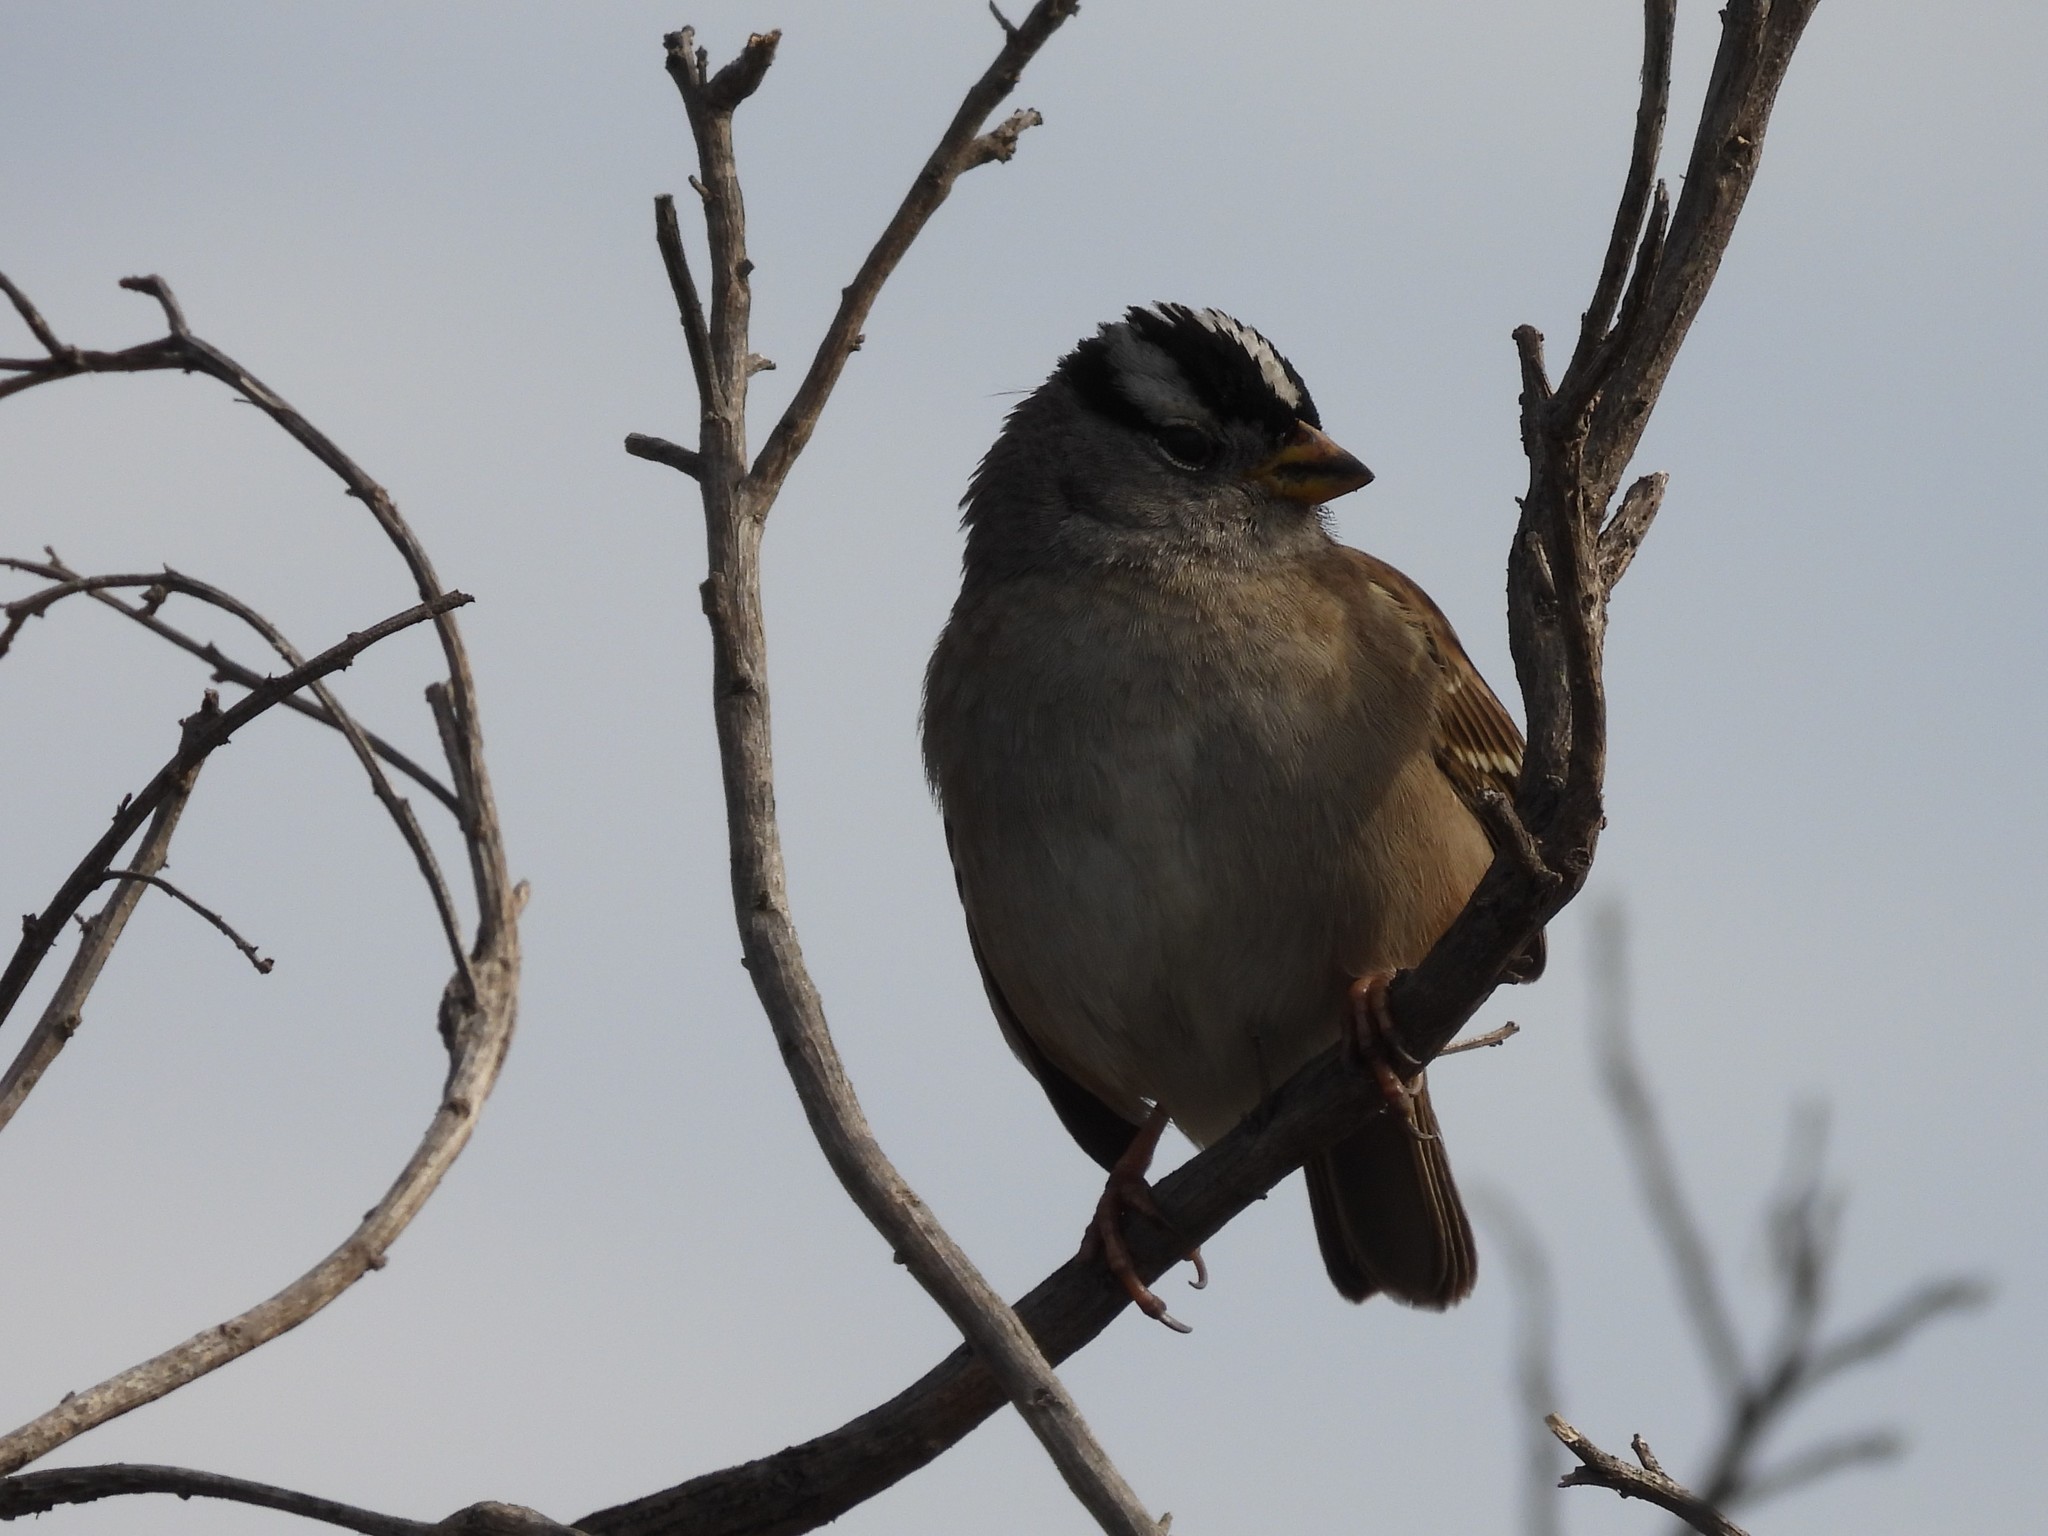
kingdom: Animalia
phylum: Chordata
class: Aves
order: Passeriformes
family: Passerellidae
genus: Zonotrichia
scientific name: Zonotrichia leucophrys
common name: White-crowned sparrow
